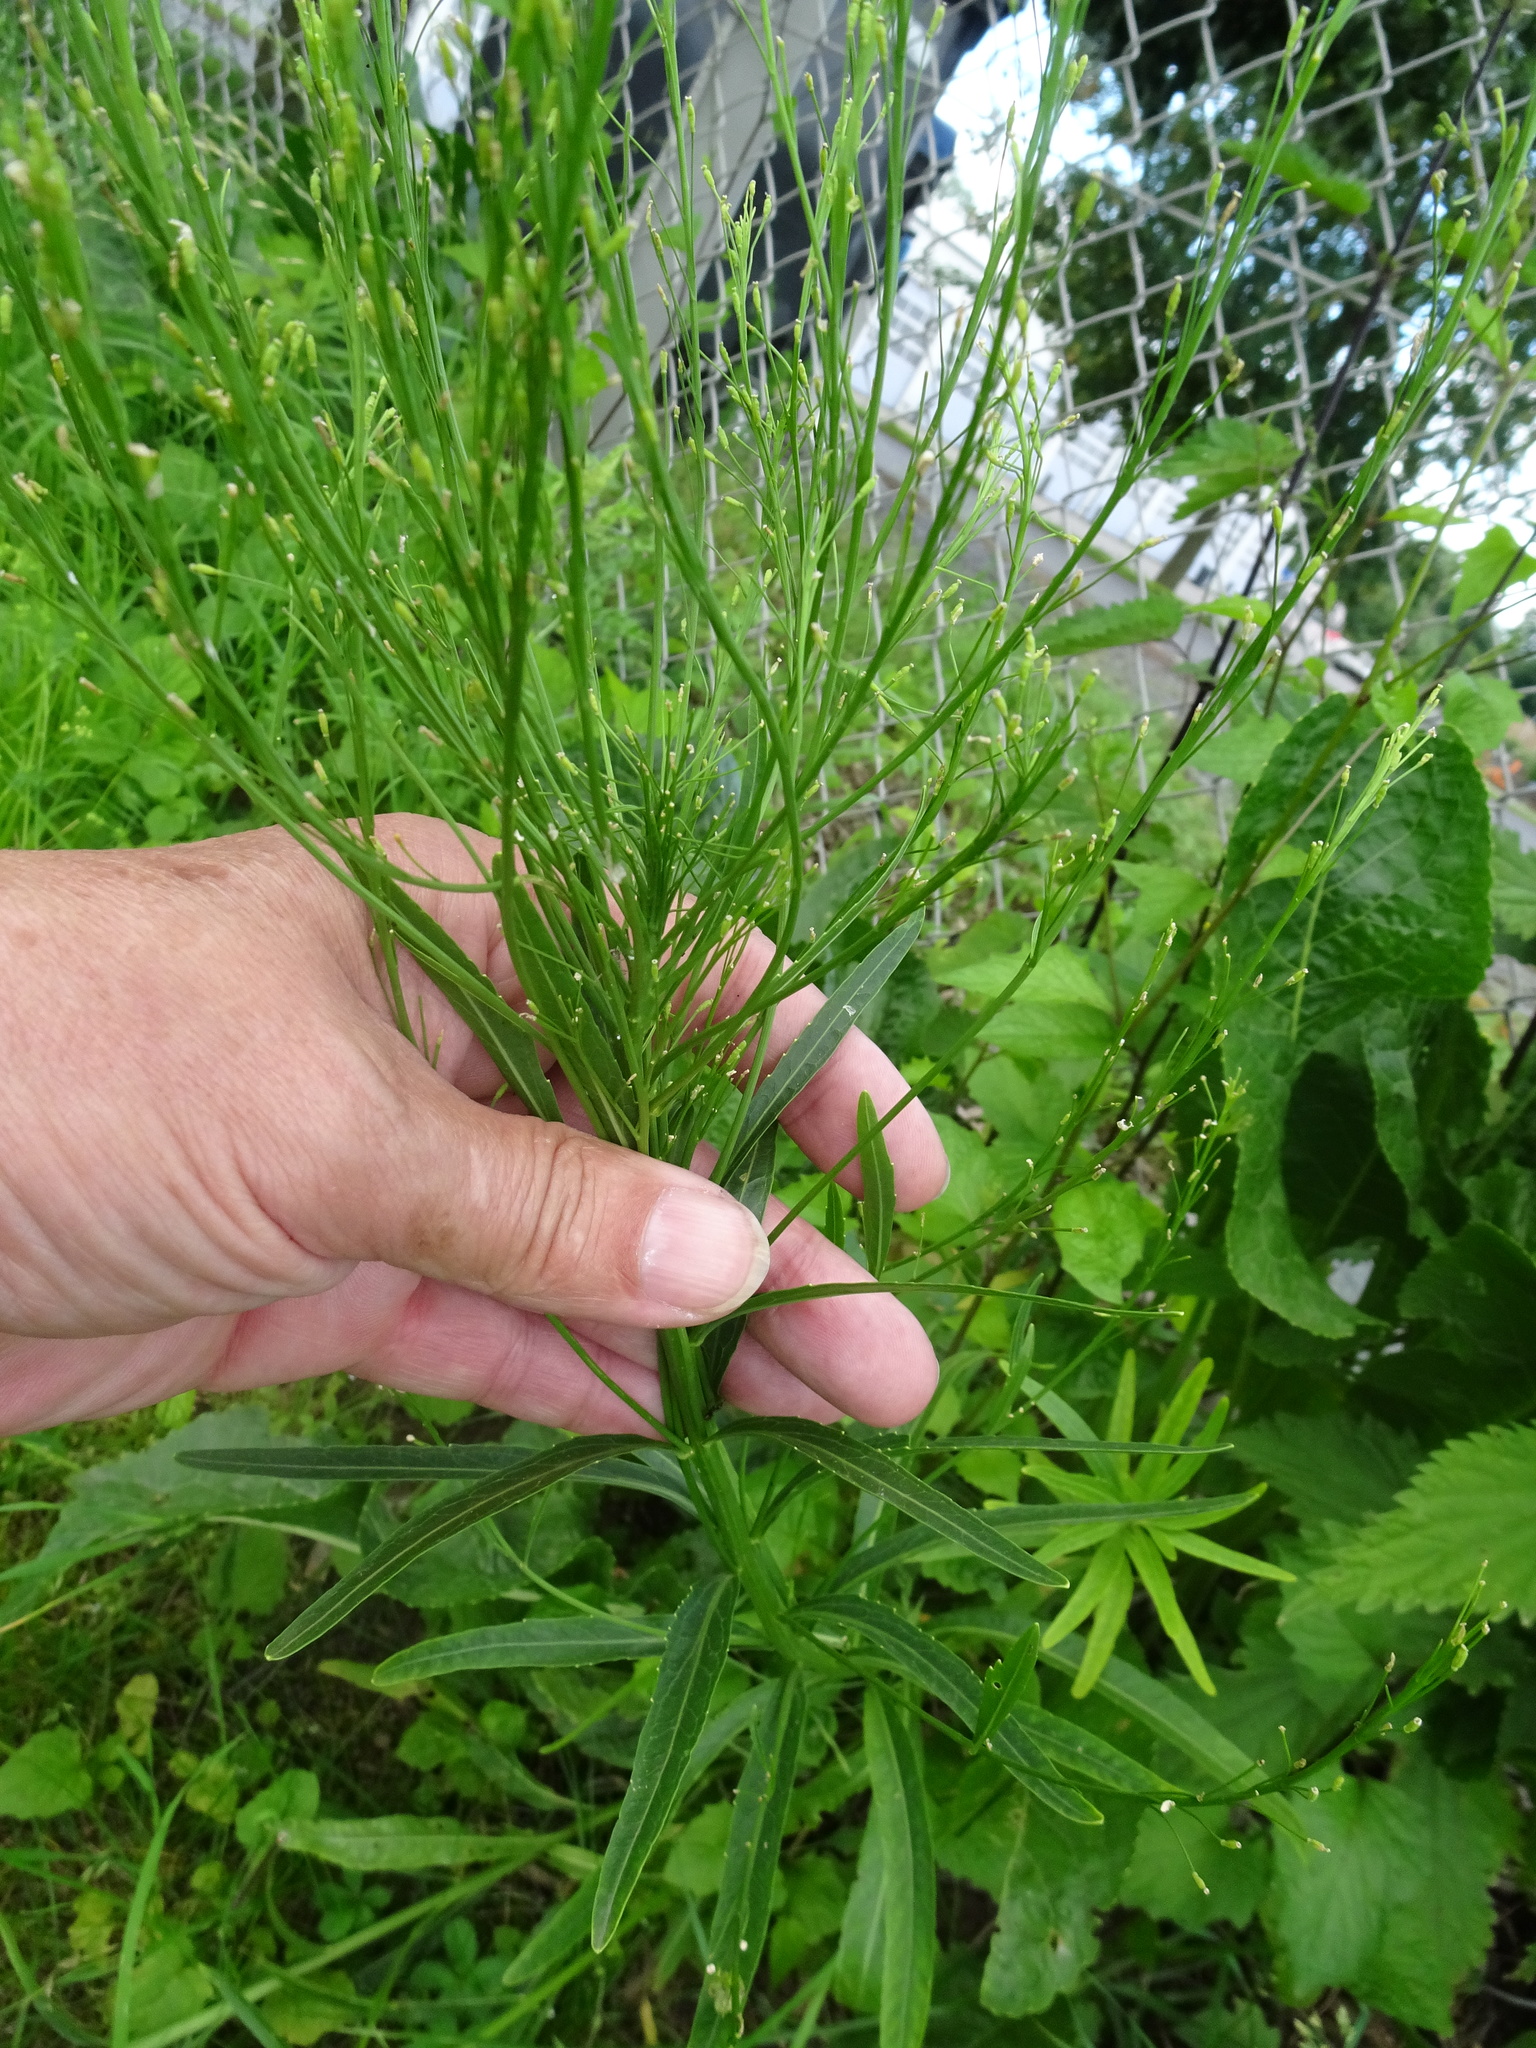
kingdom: Plantae
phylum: Tracheophyta
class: Magnoliopsida
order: Brassicales
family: Brassicaceae
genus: Armoracia
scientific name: Armoracia rusticana
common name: Horseradish
